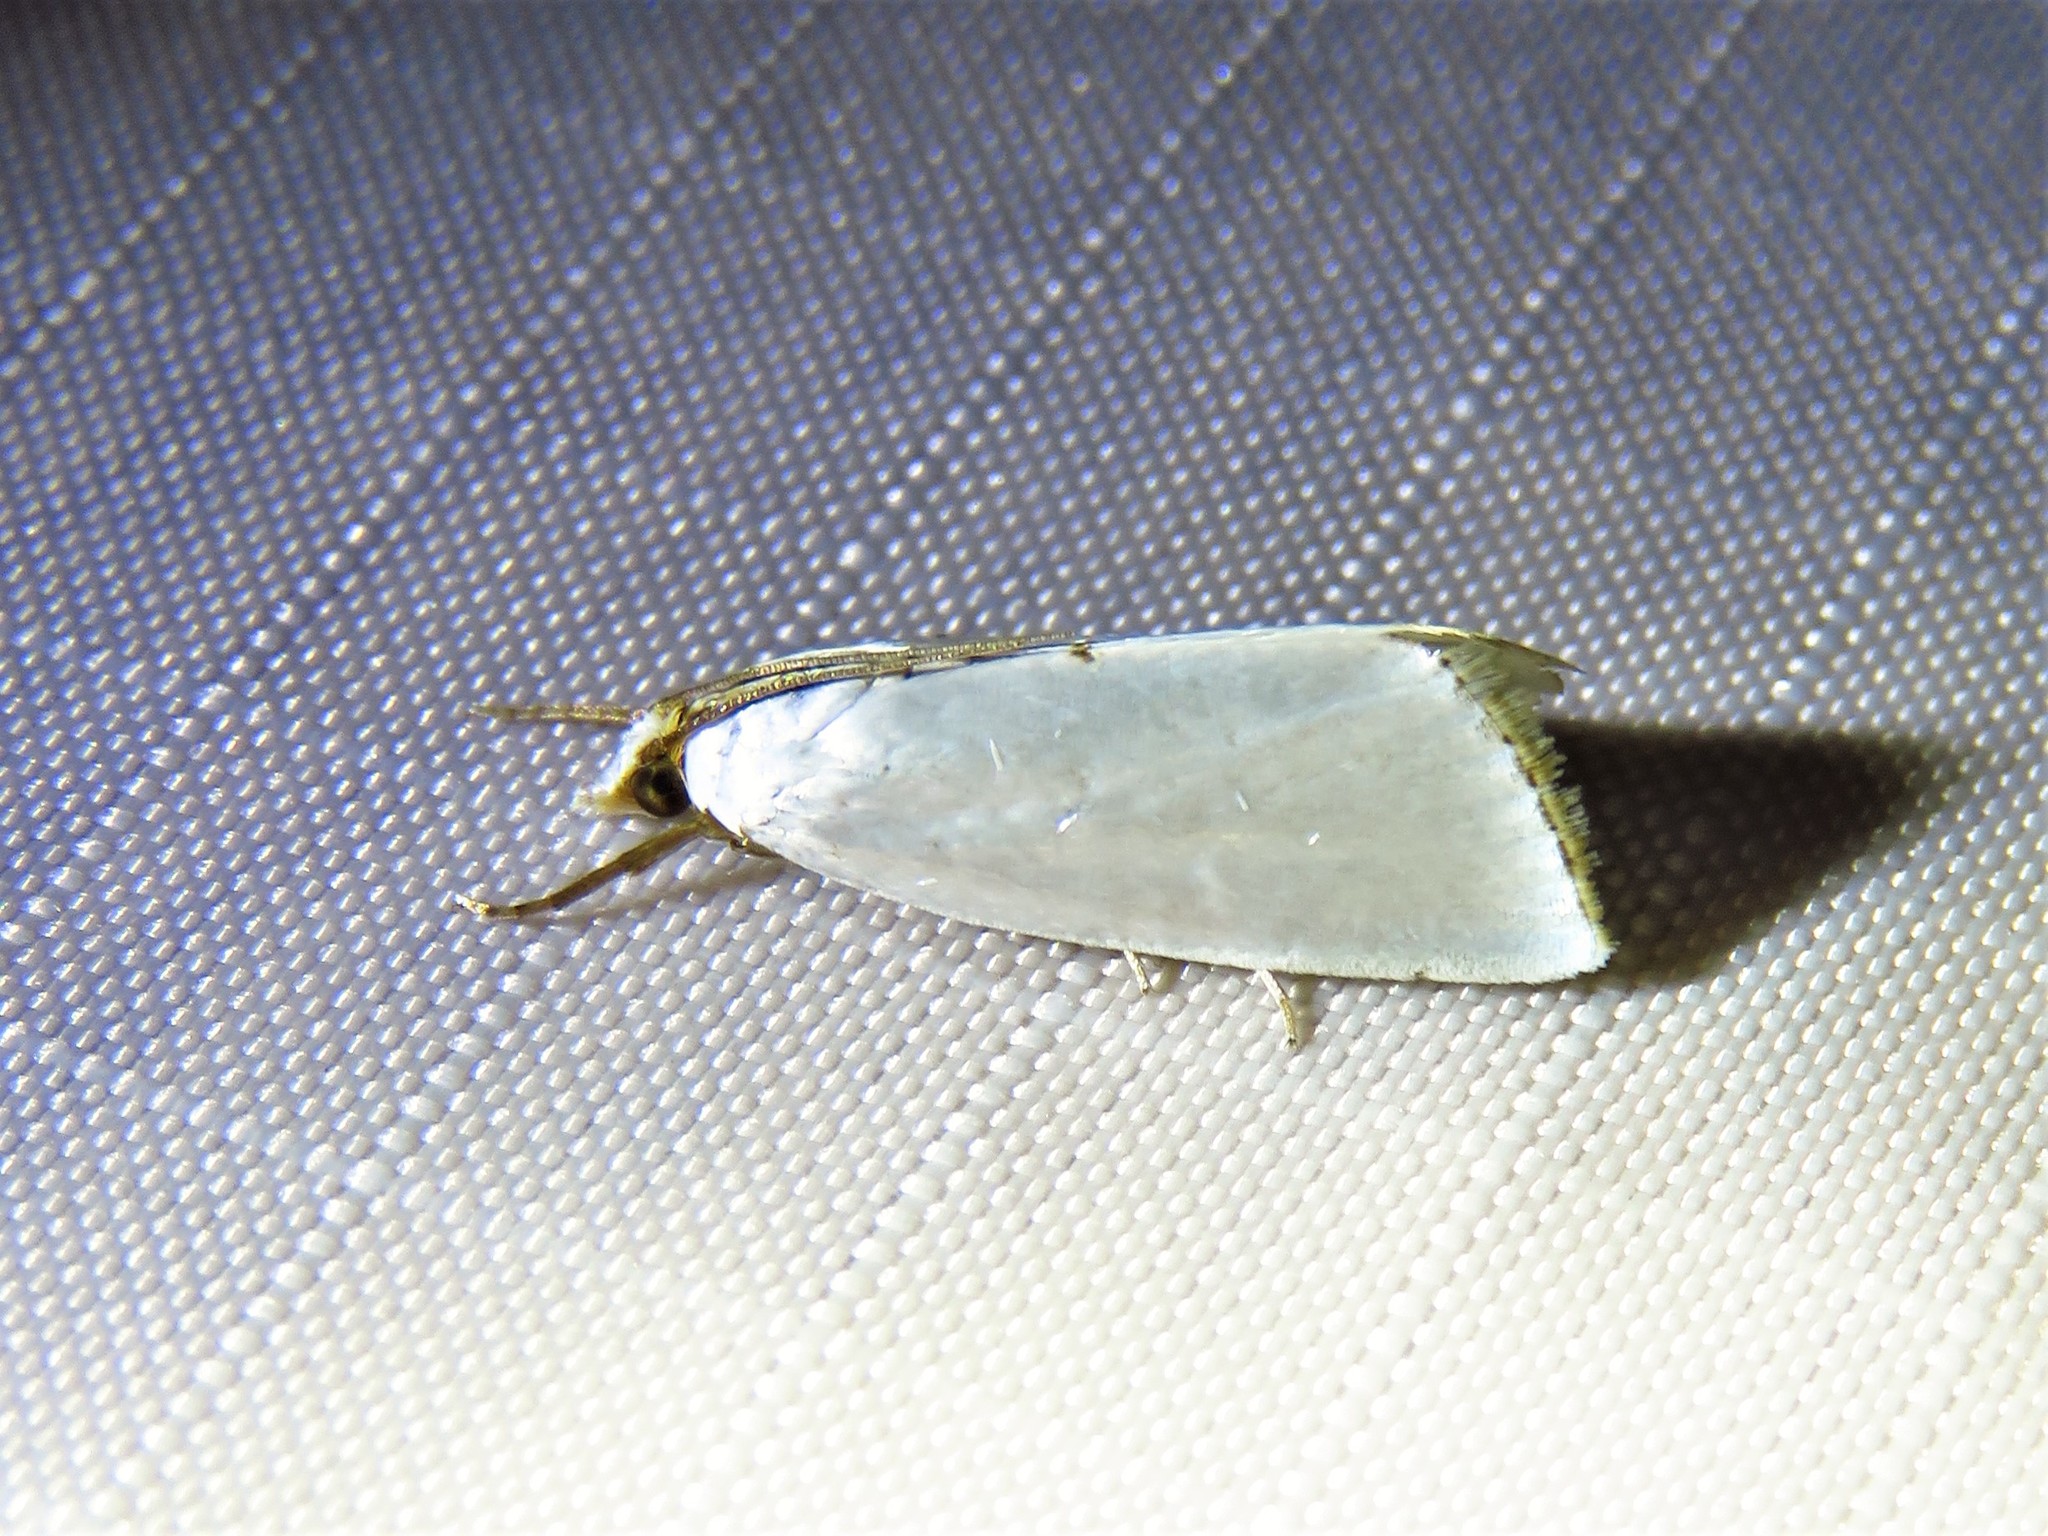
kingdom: Animalia
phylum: Arthropoda
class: Insecta
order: Lepidoptera
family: Crambidae
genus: Argyria
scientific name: Argyria nivalis
